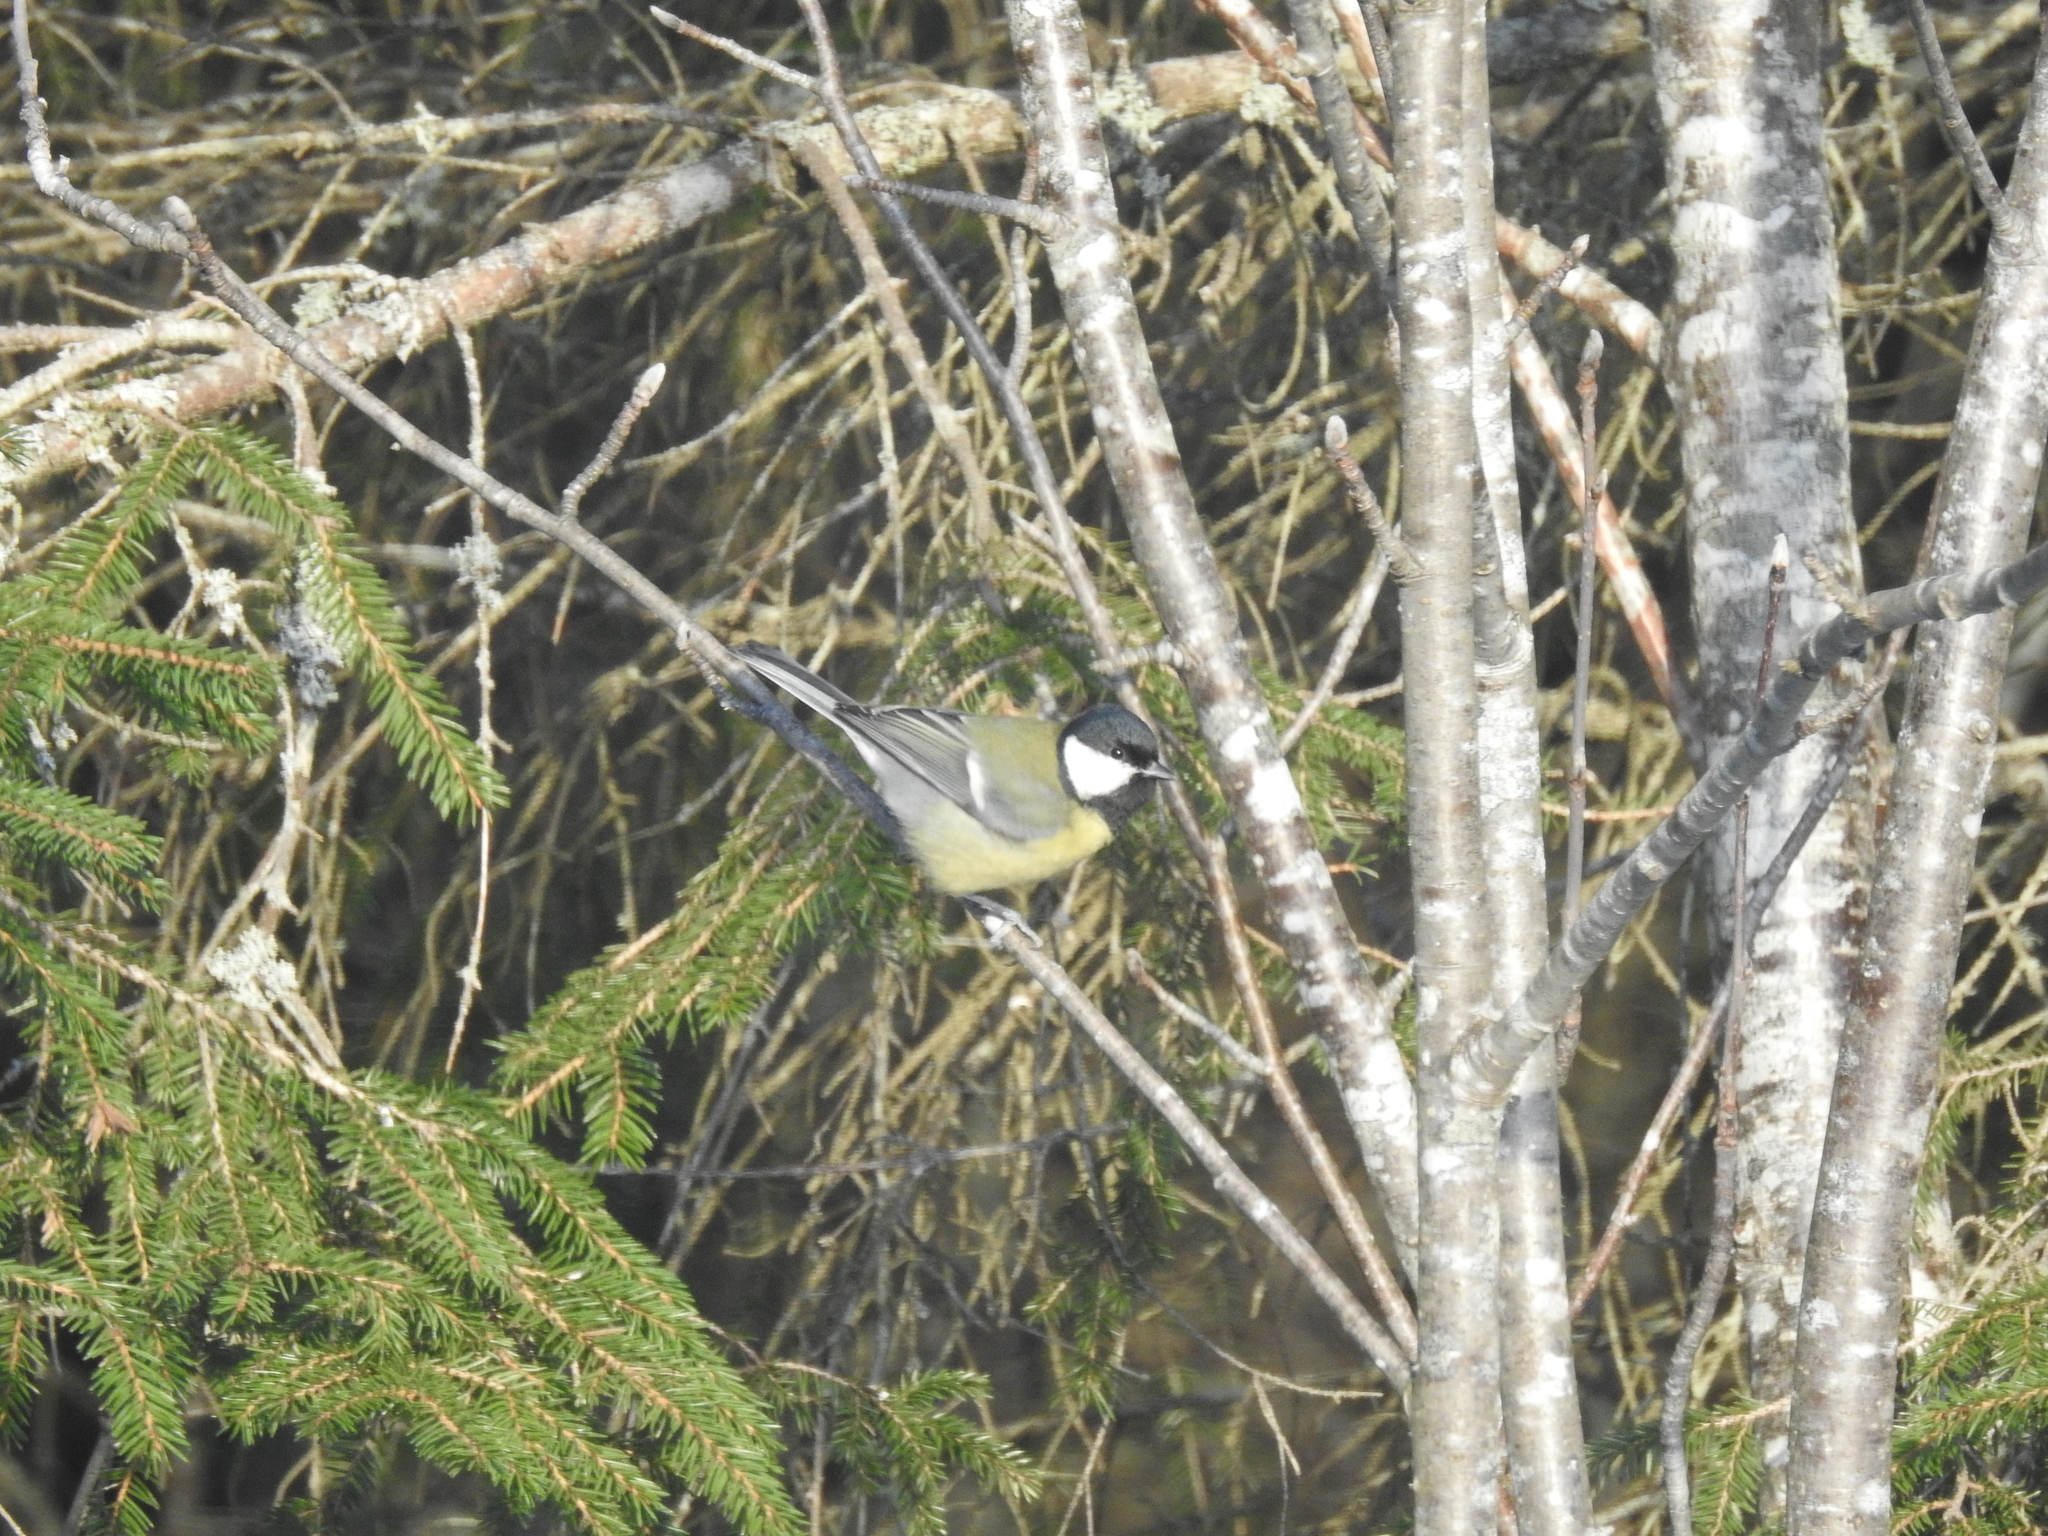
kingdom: Animalia
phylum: Chordata
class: Aves
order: Passeriformes
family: Paridae
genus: Parus
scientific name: Parus major
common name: Great tit
